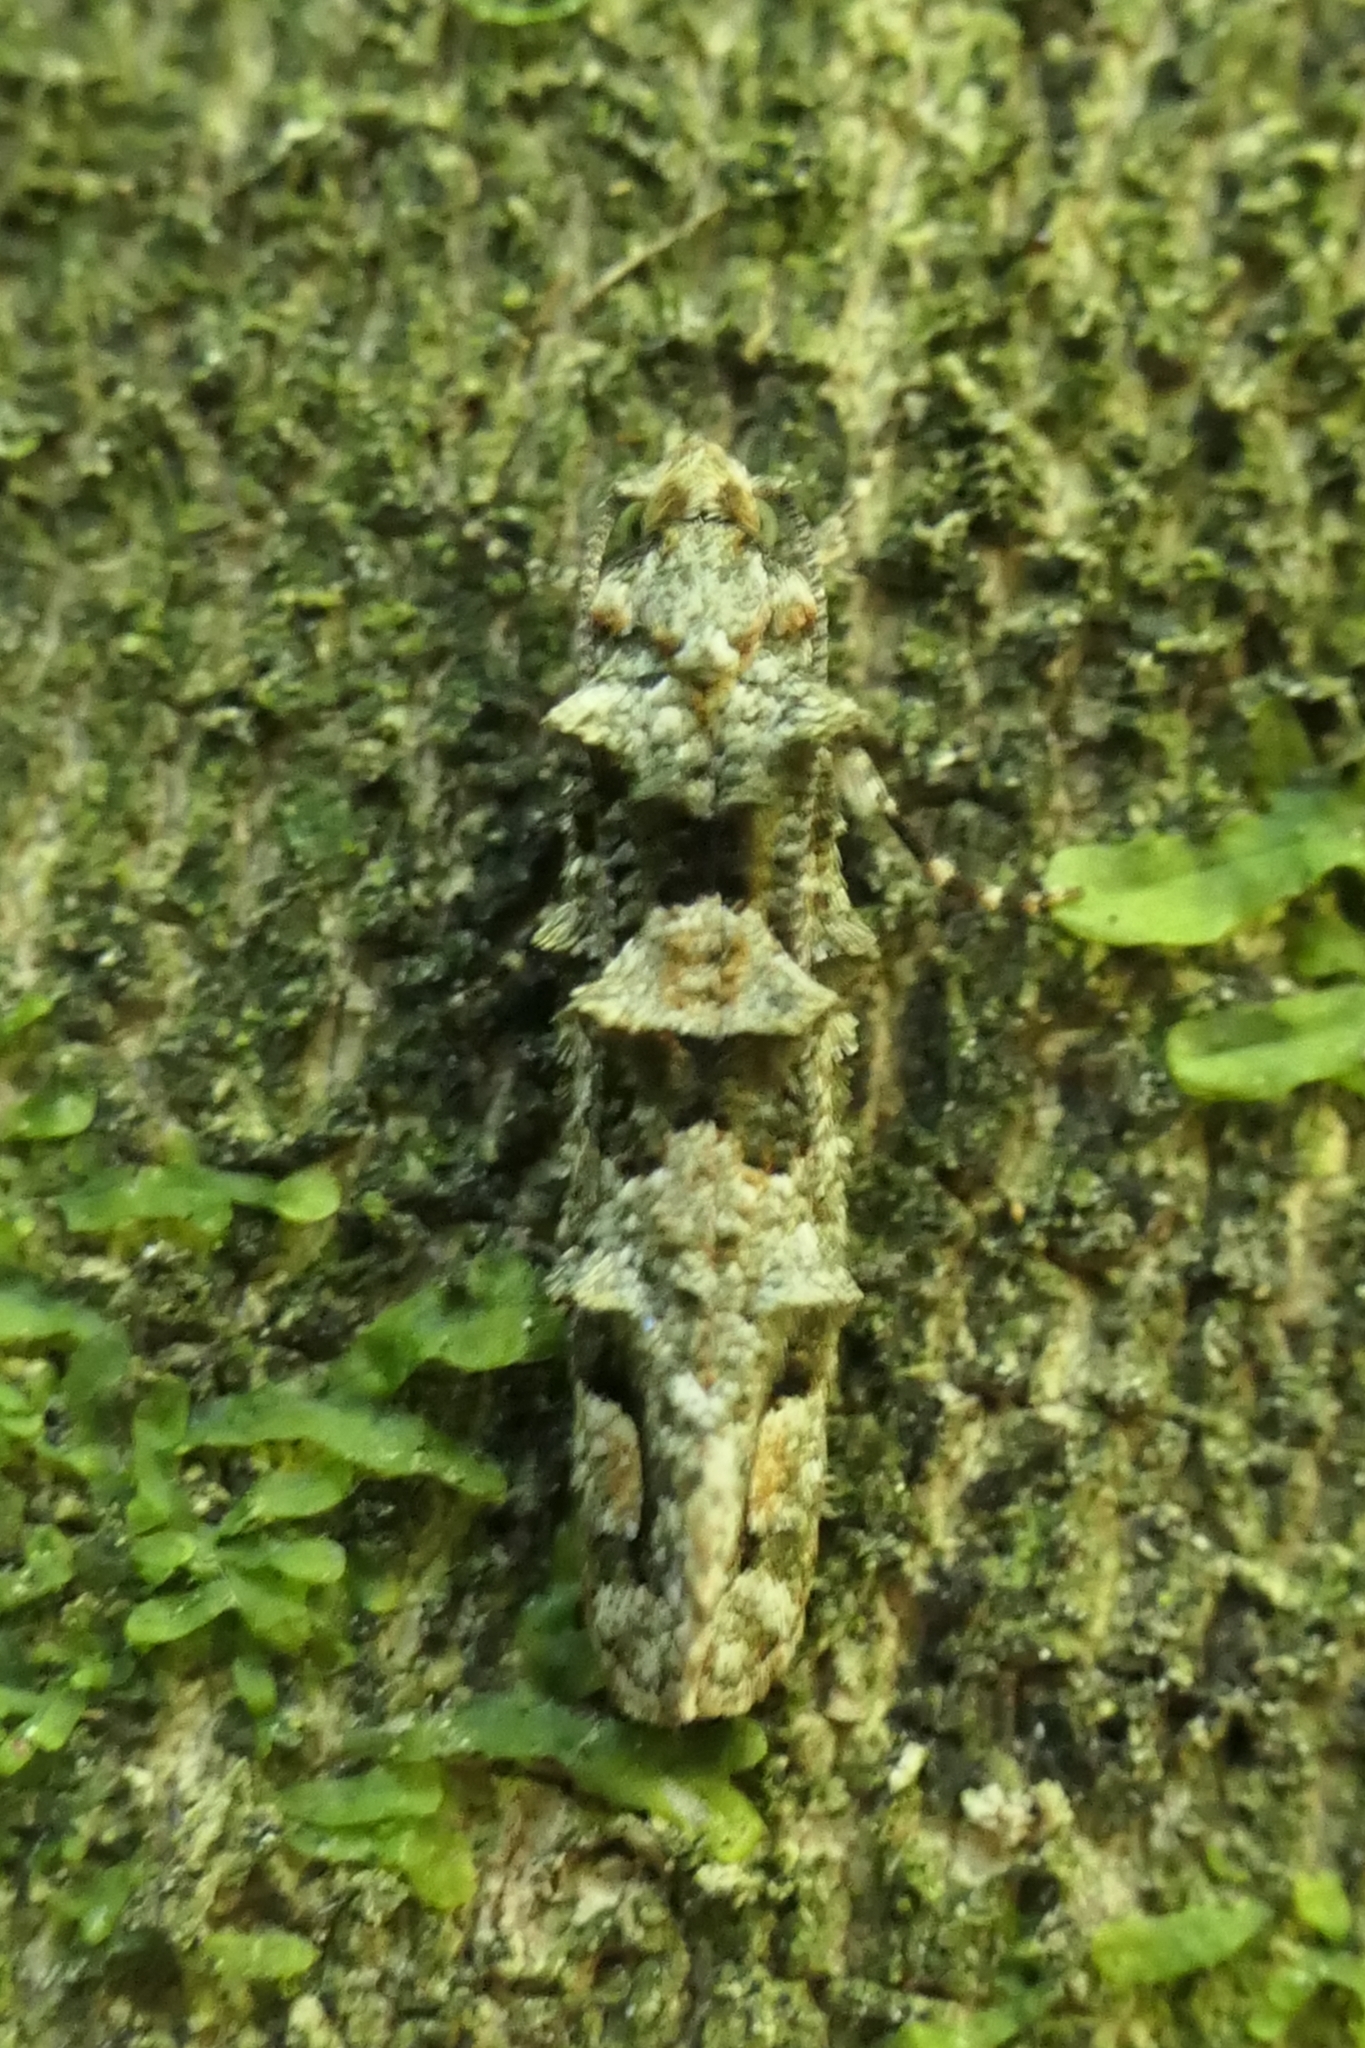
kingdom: Animalia
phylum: Arthropoda
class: Insecta
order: Lepidoptera
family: Tineidae
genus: Lysiphragma
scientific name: Lysiphragma howesii
